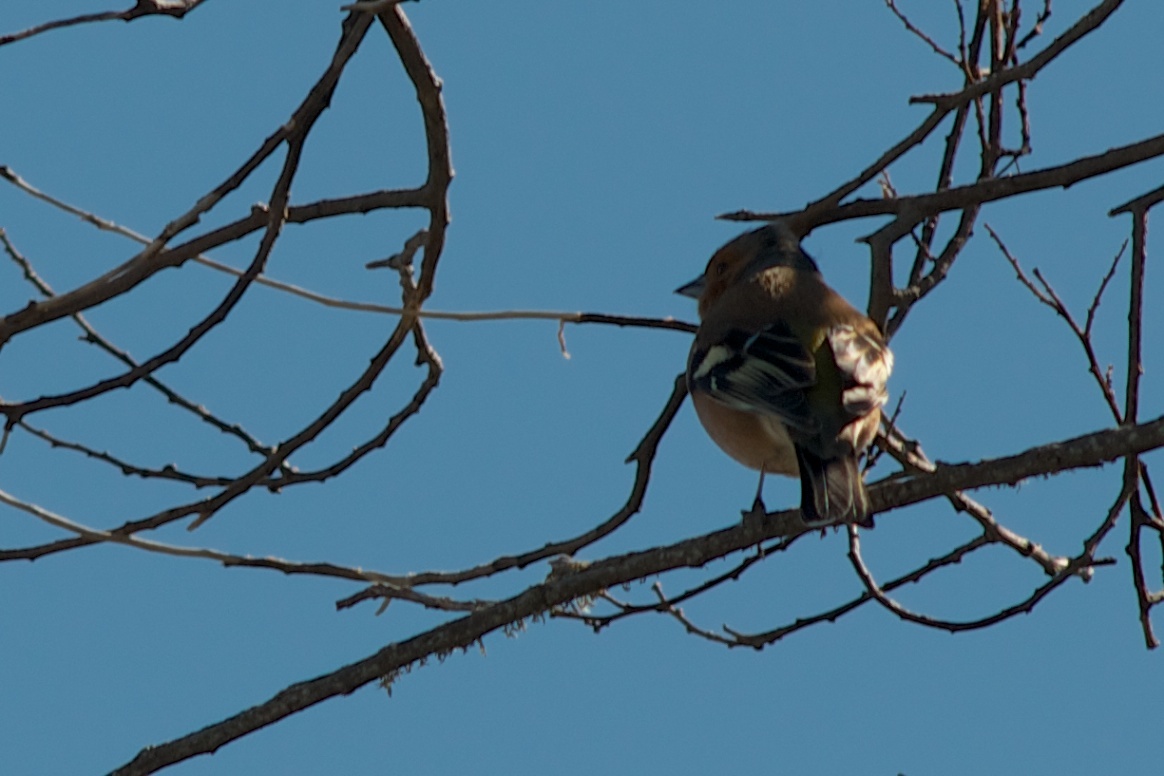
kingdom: Animalia
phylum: Chordata
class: Aves
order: Passeriformes
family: Fringillidae
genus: Fringilla
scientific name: Fringilla coelebs
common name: Common chaffinch
